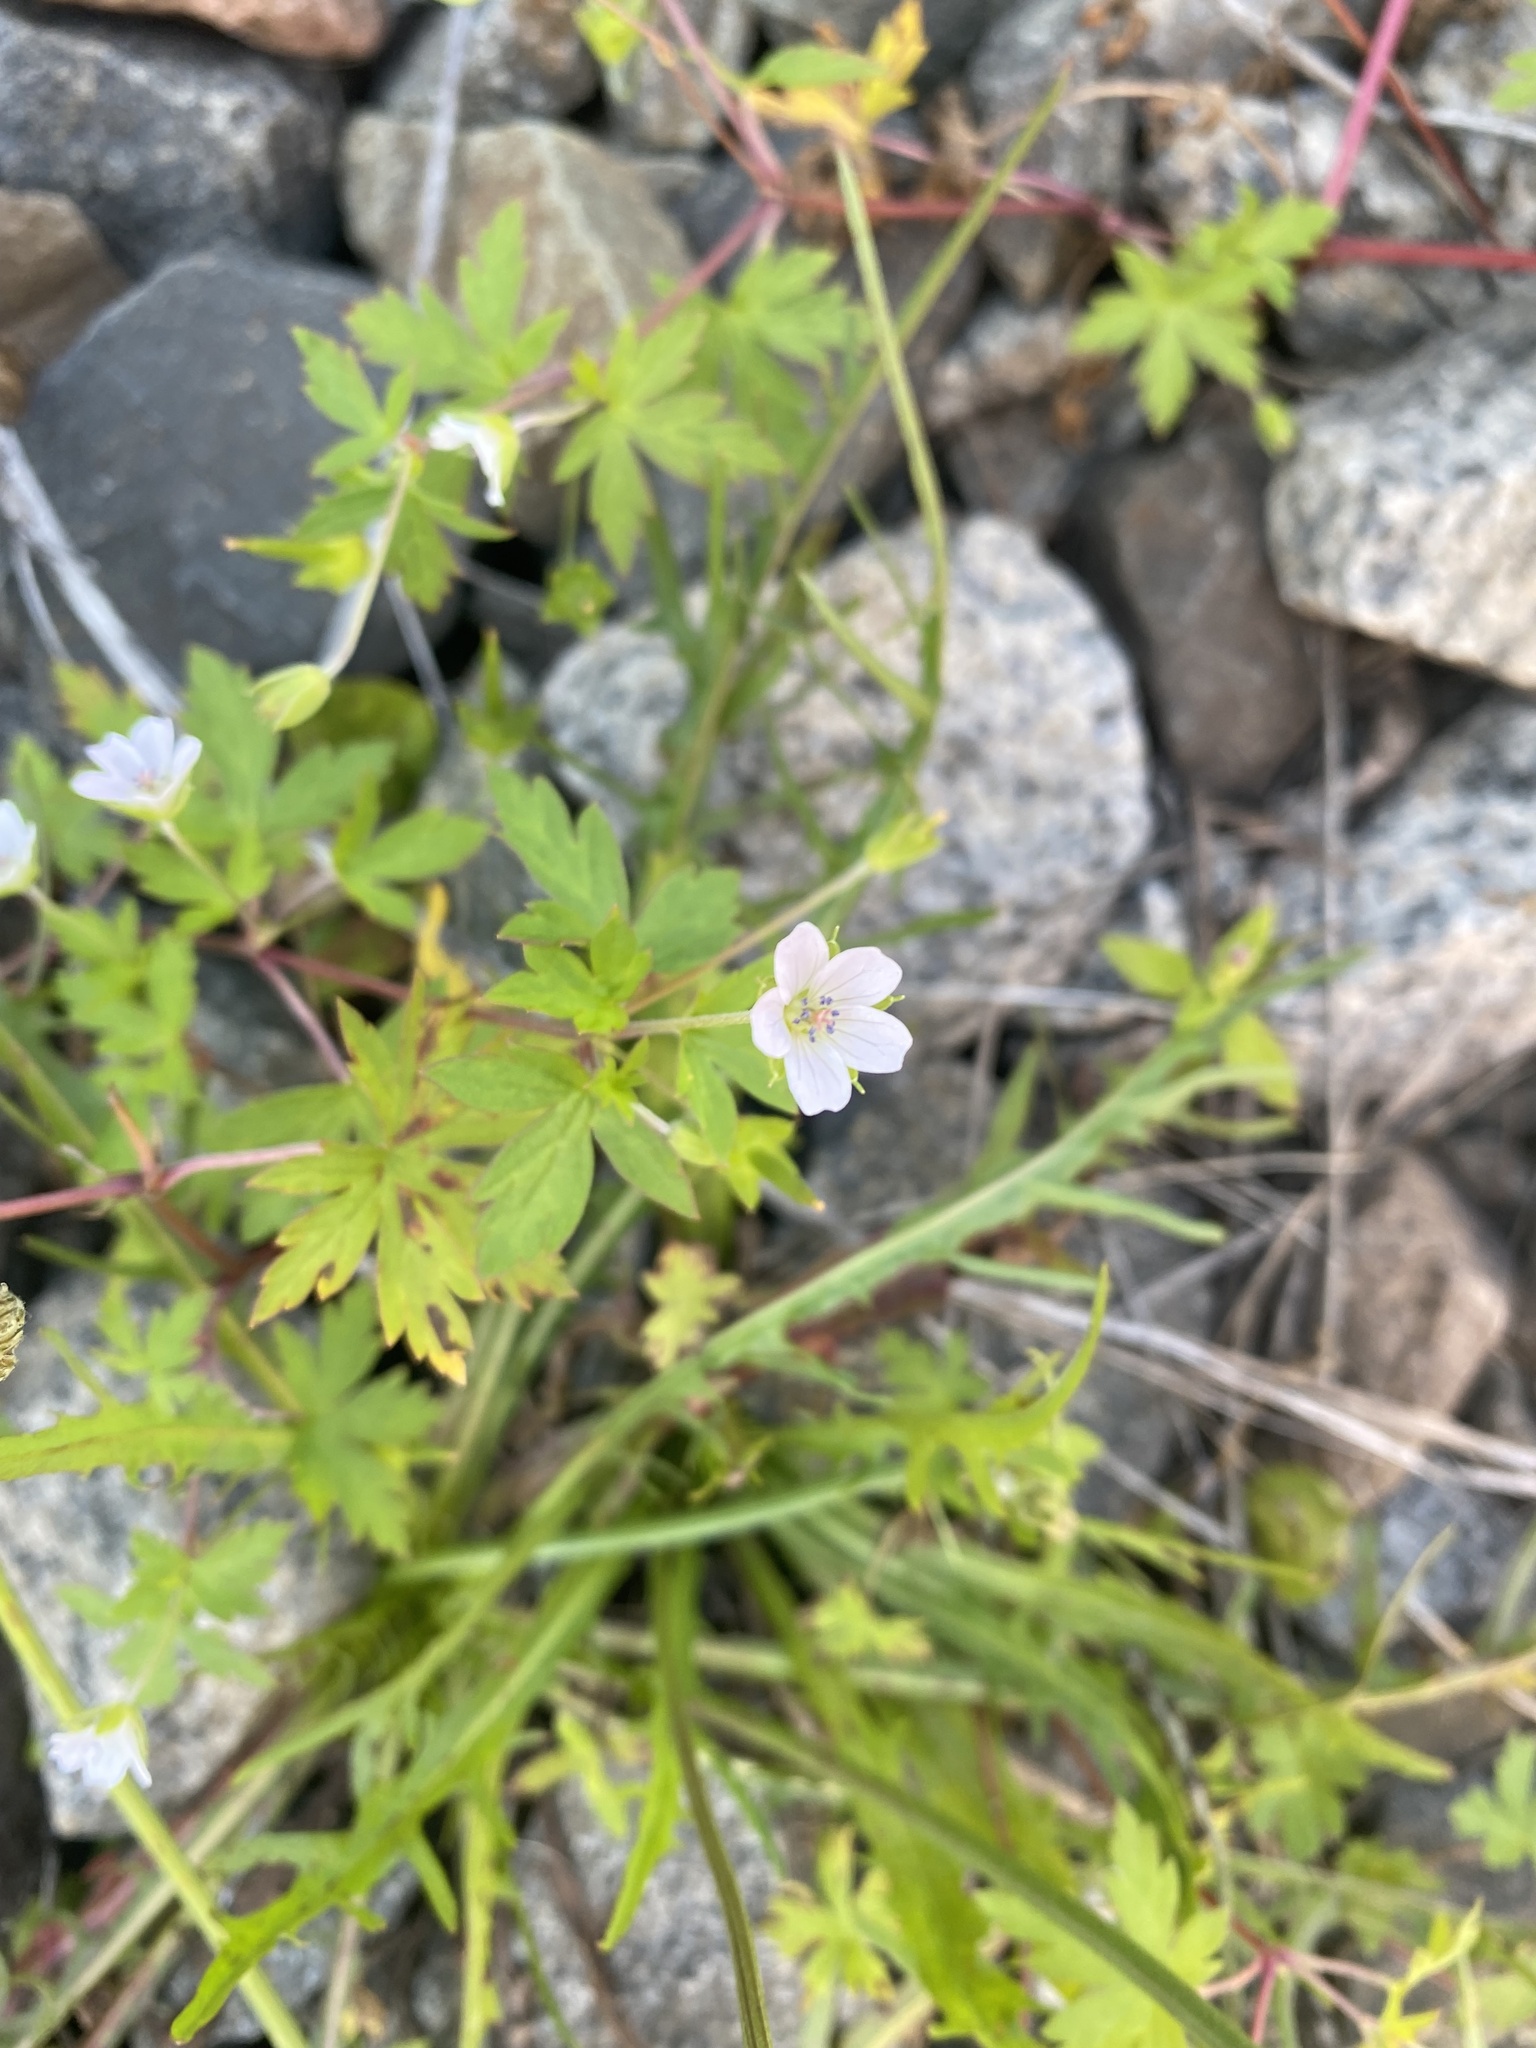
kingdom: Plantae
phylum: Tracheophyta
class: Magnoliopsida
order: Geraniales
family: Geraniaceae
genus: Geranium
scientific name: Geranium sibiricum
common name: Siberian crane's-bill
